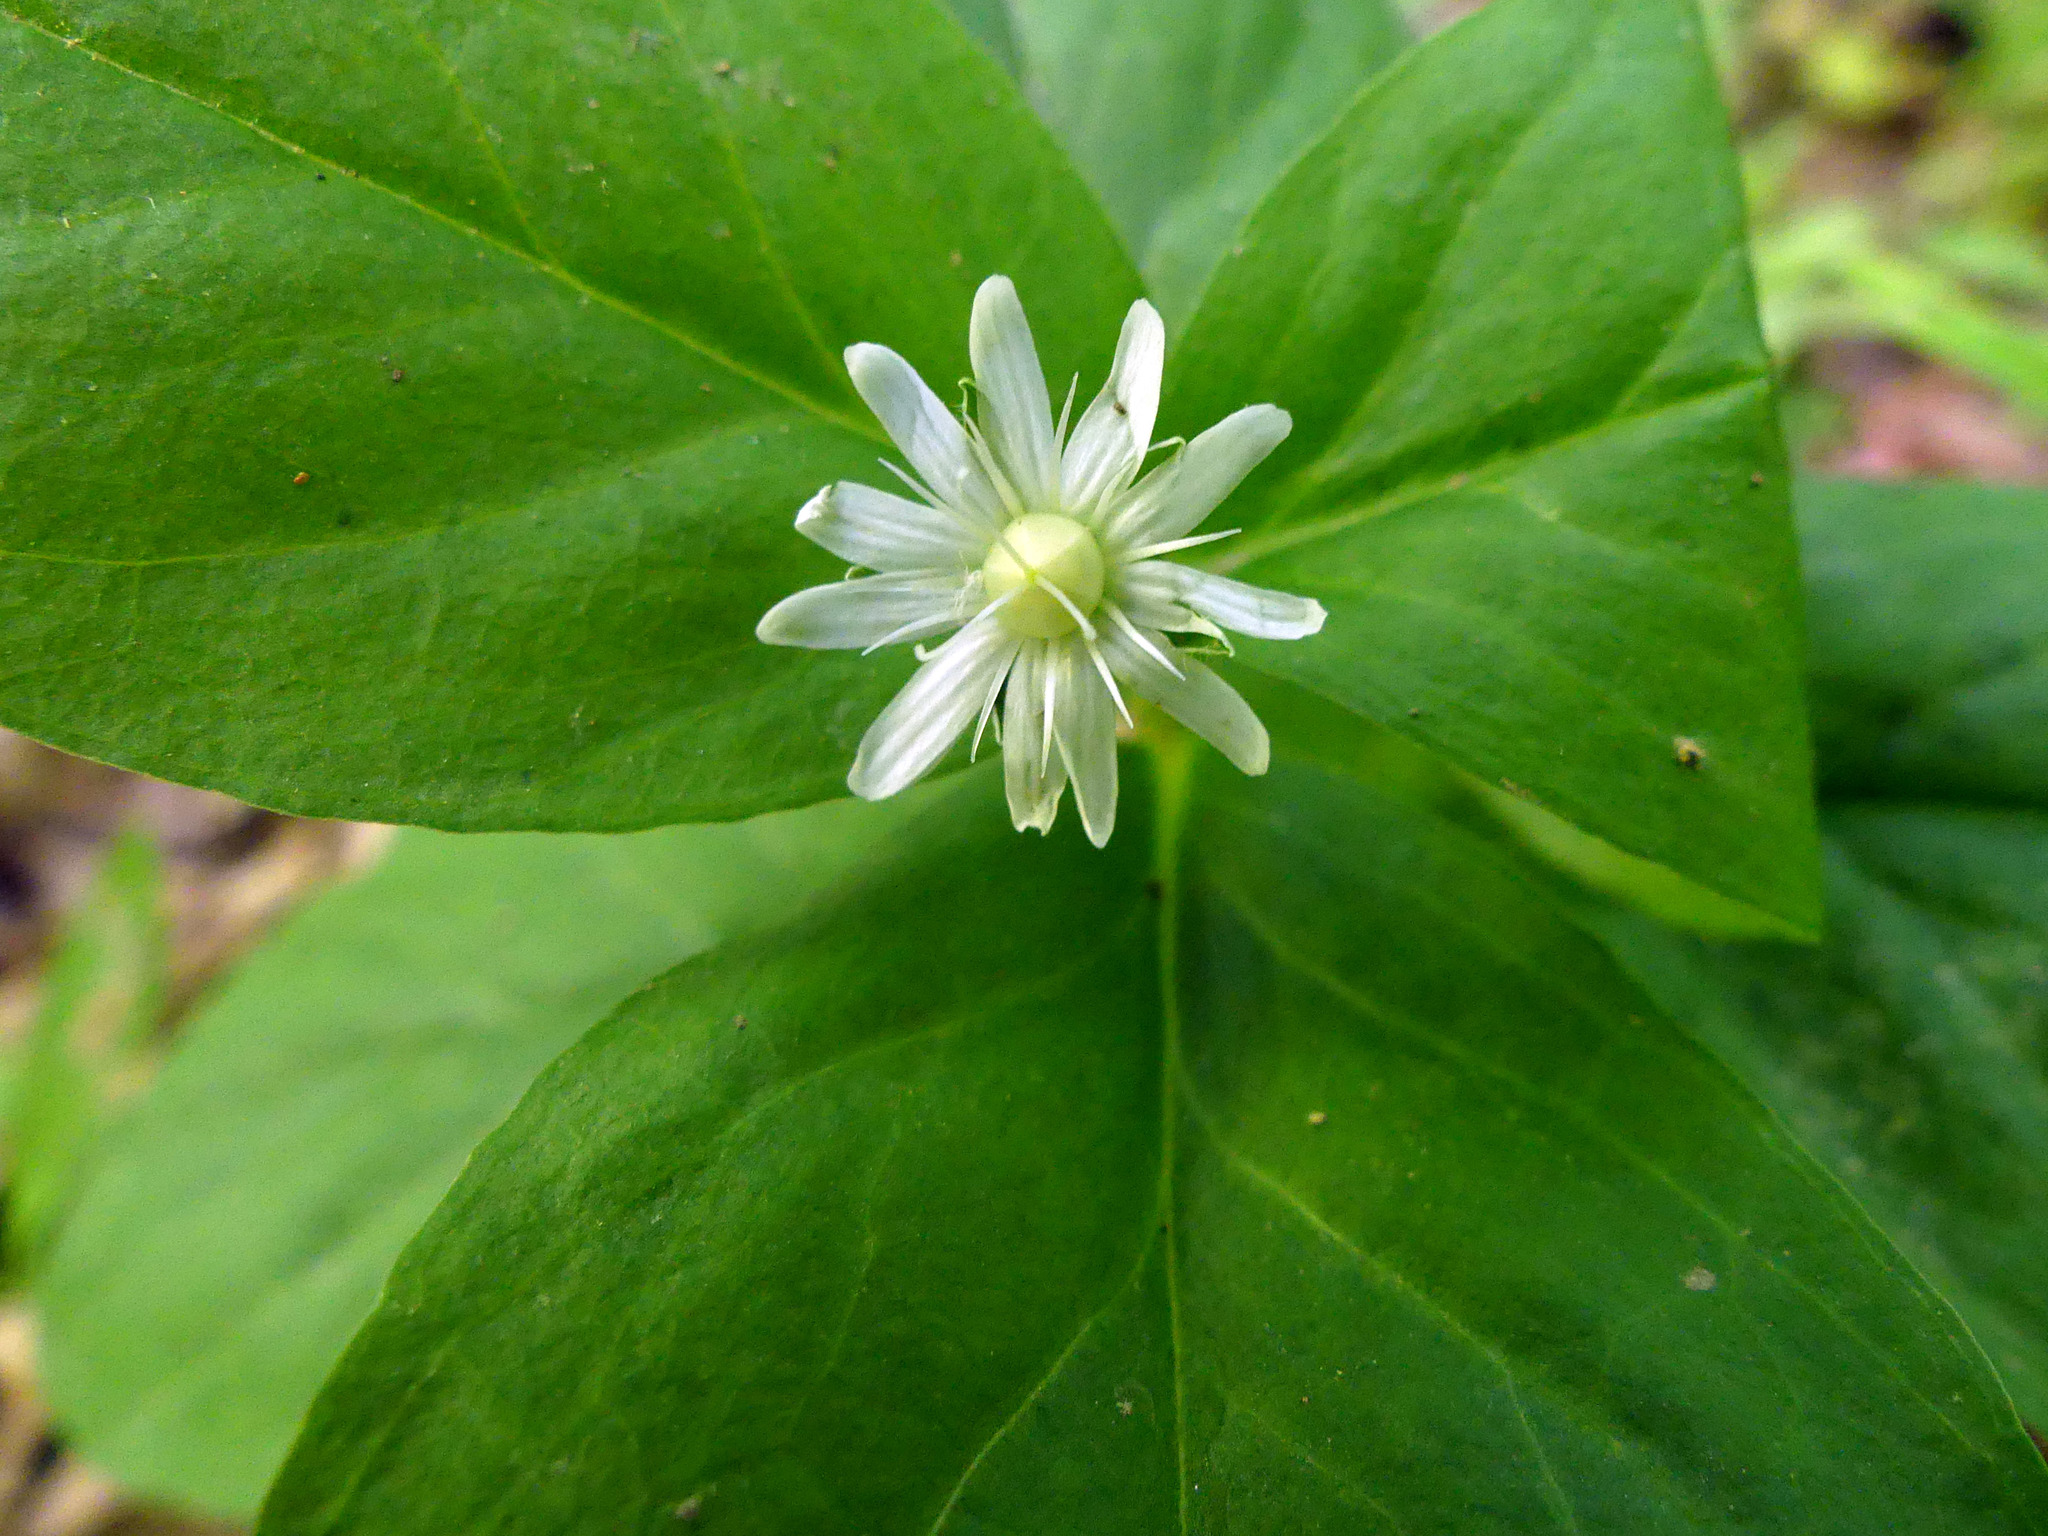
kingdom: Plantae
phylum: Tracheophyta
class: Magnoliopsida
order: Caryophyllales
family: Caryophyllaceae
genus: Stellaria
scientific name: Stellaria pubera
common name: Star chickweed
